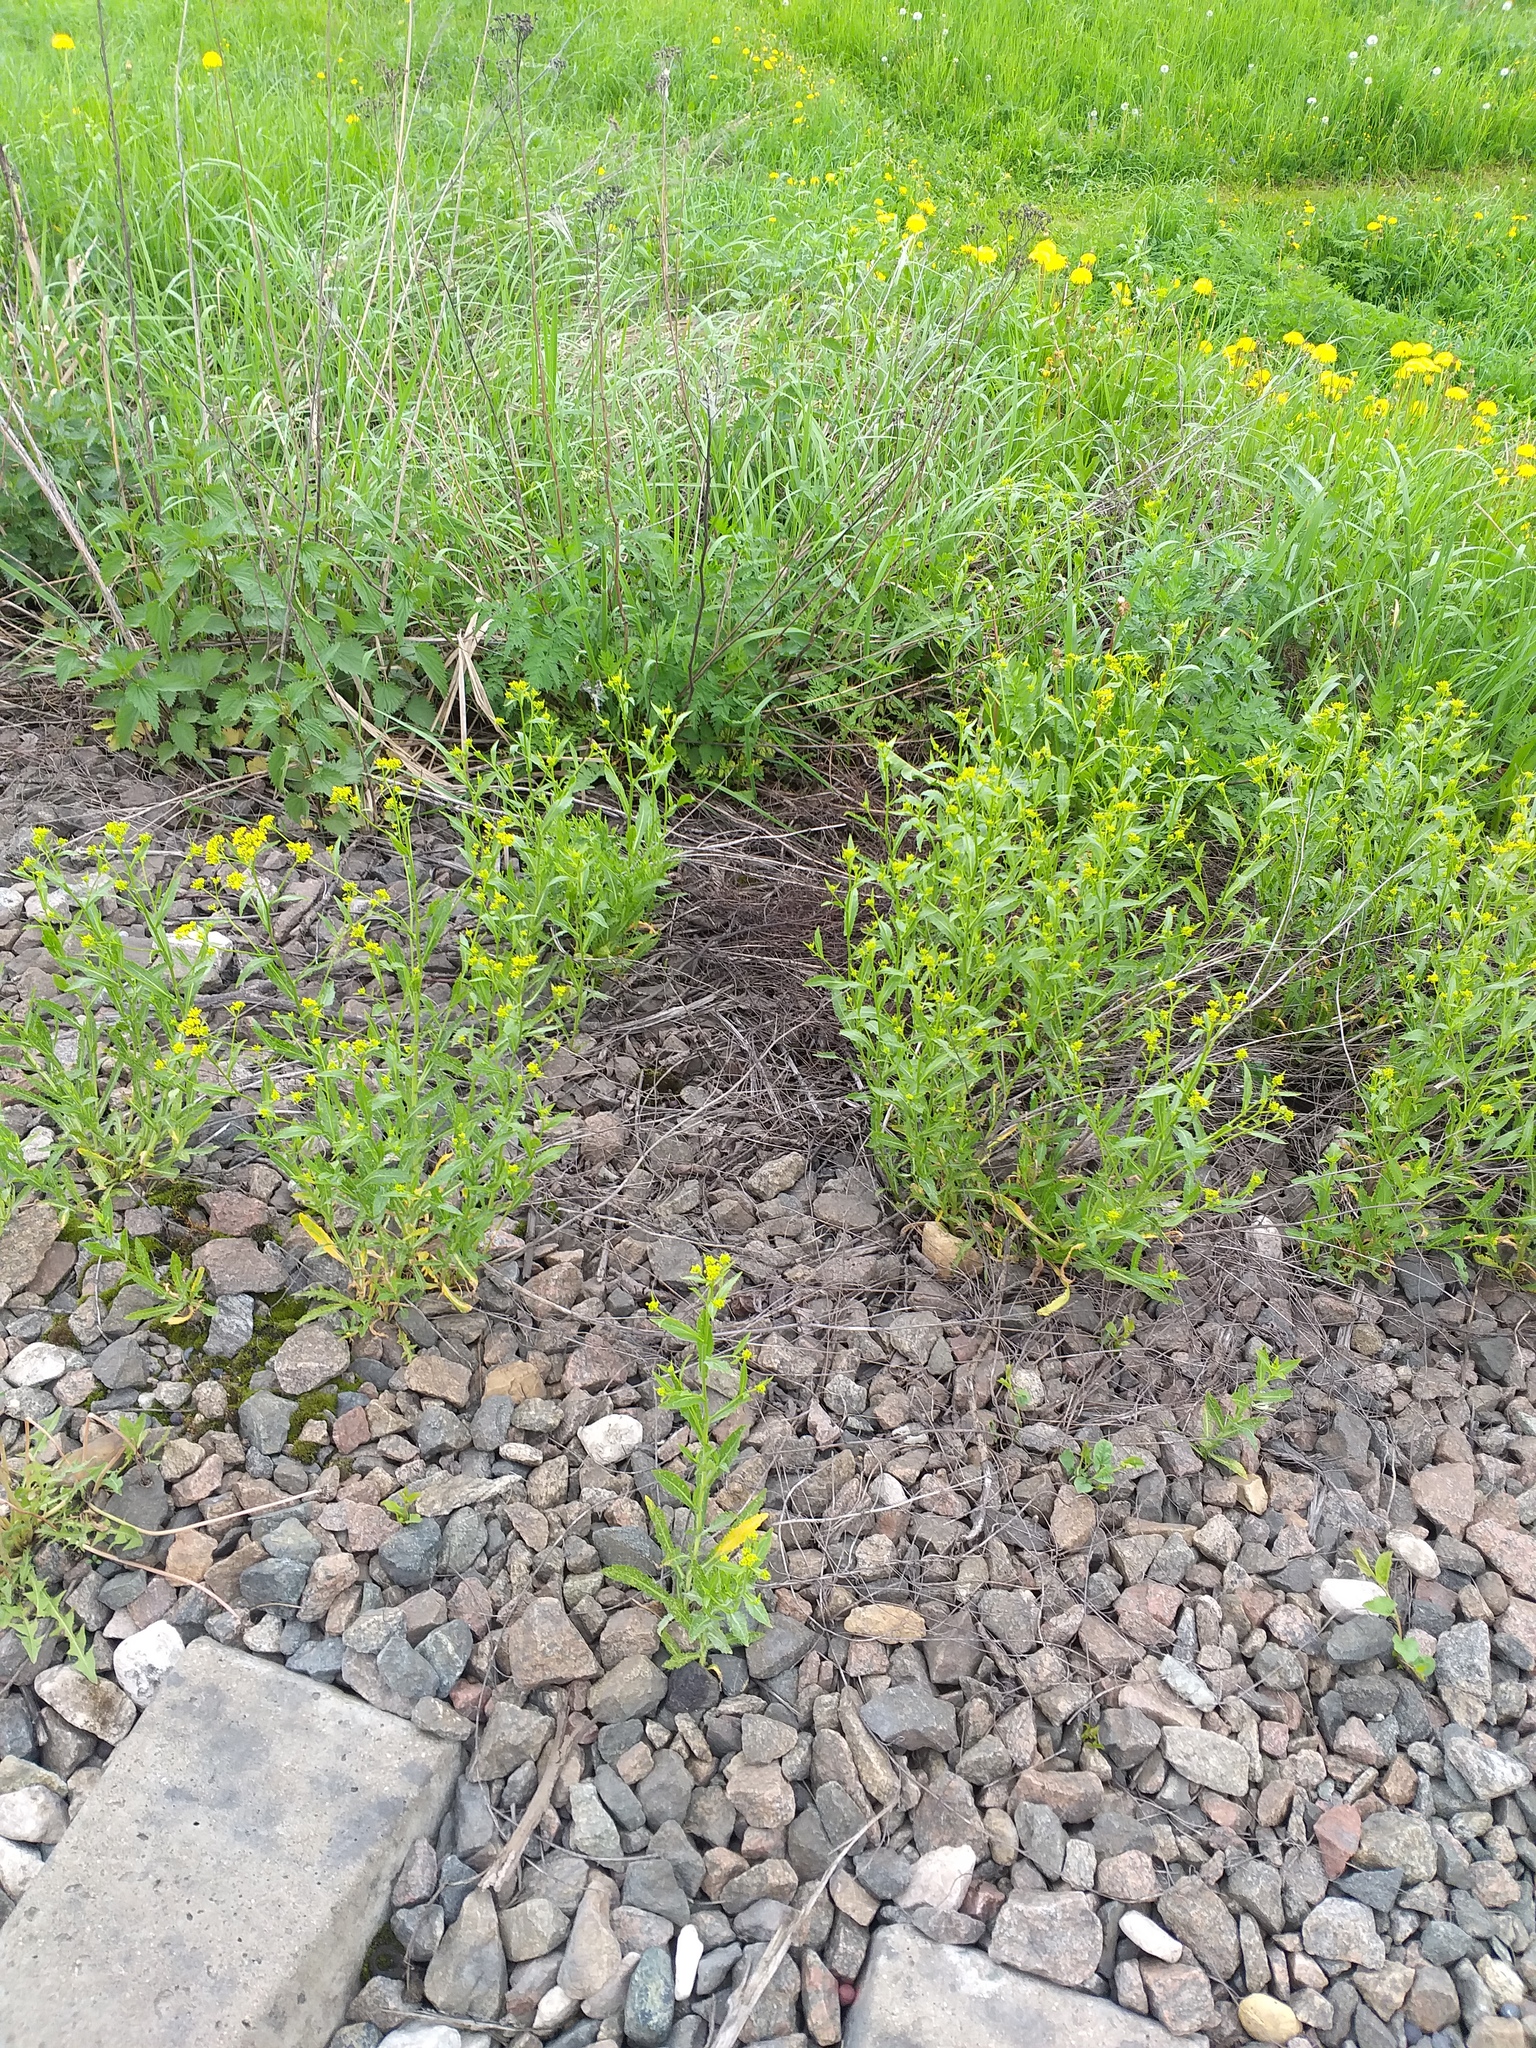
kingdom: Plantae
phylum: Tracheophyta
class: Magnoliopsida
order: Brassicales
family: Brassicaceae
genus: Rorippa
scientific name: Rorippa austriaca
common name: Austrian yellow-cress
